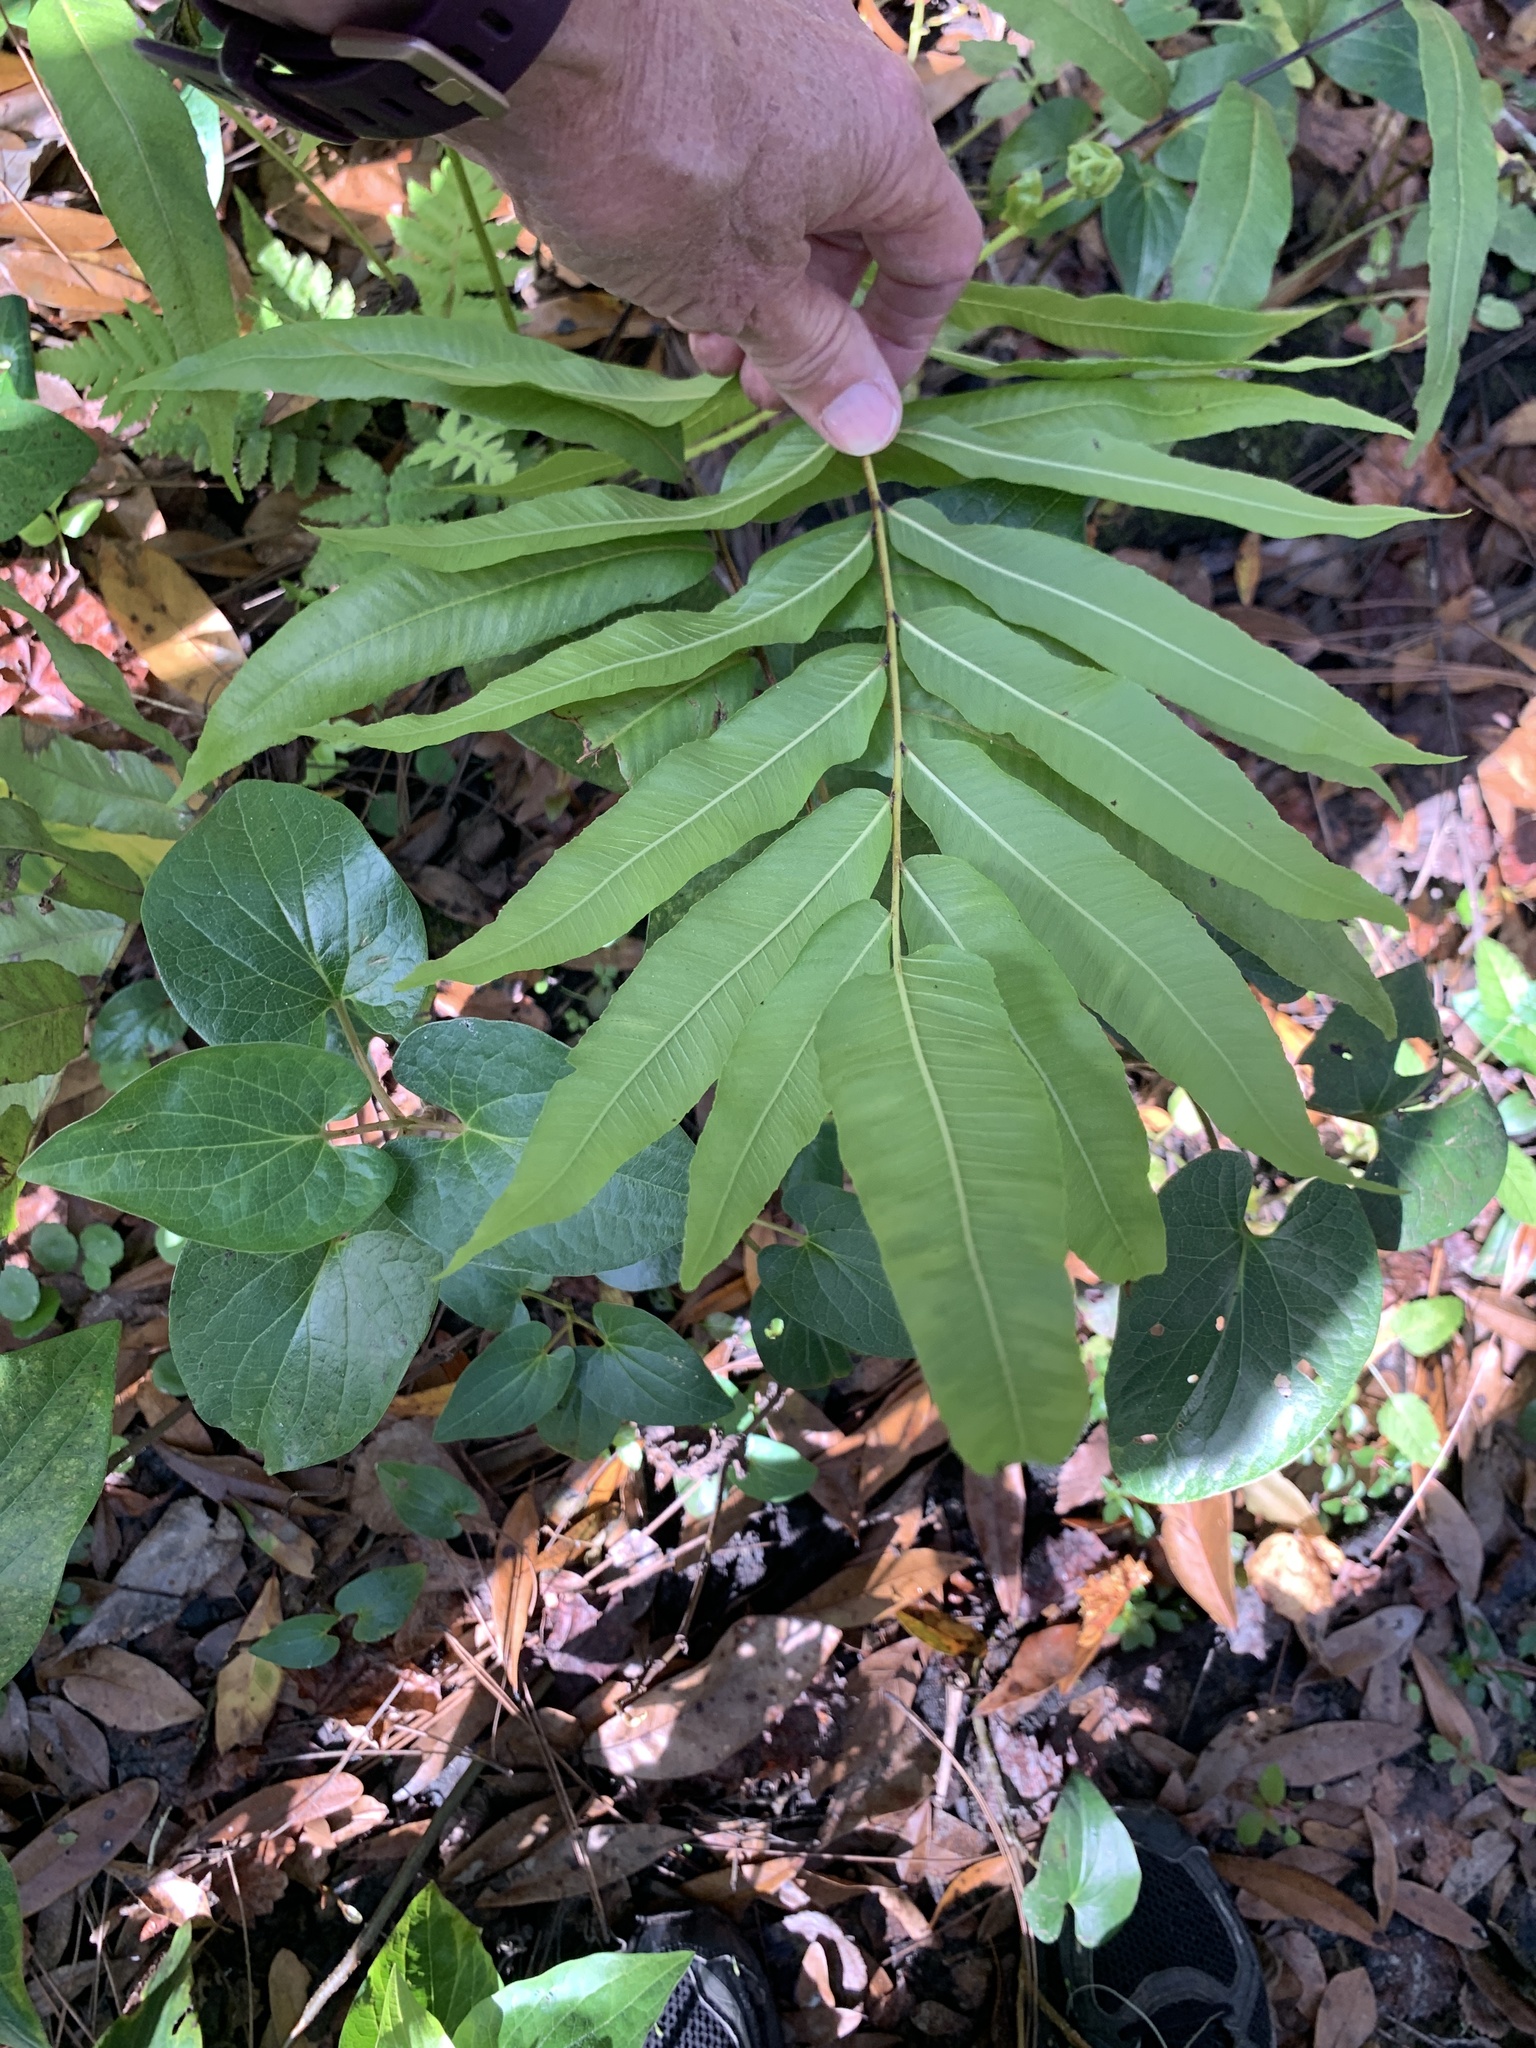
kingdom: Plantae
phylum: Tracheophyta
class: Polypodiopsida
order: Polypodiales
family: Thelypteridaceae
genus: Meniscium
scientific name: Meniscium serratum
